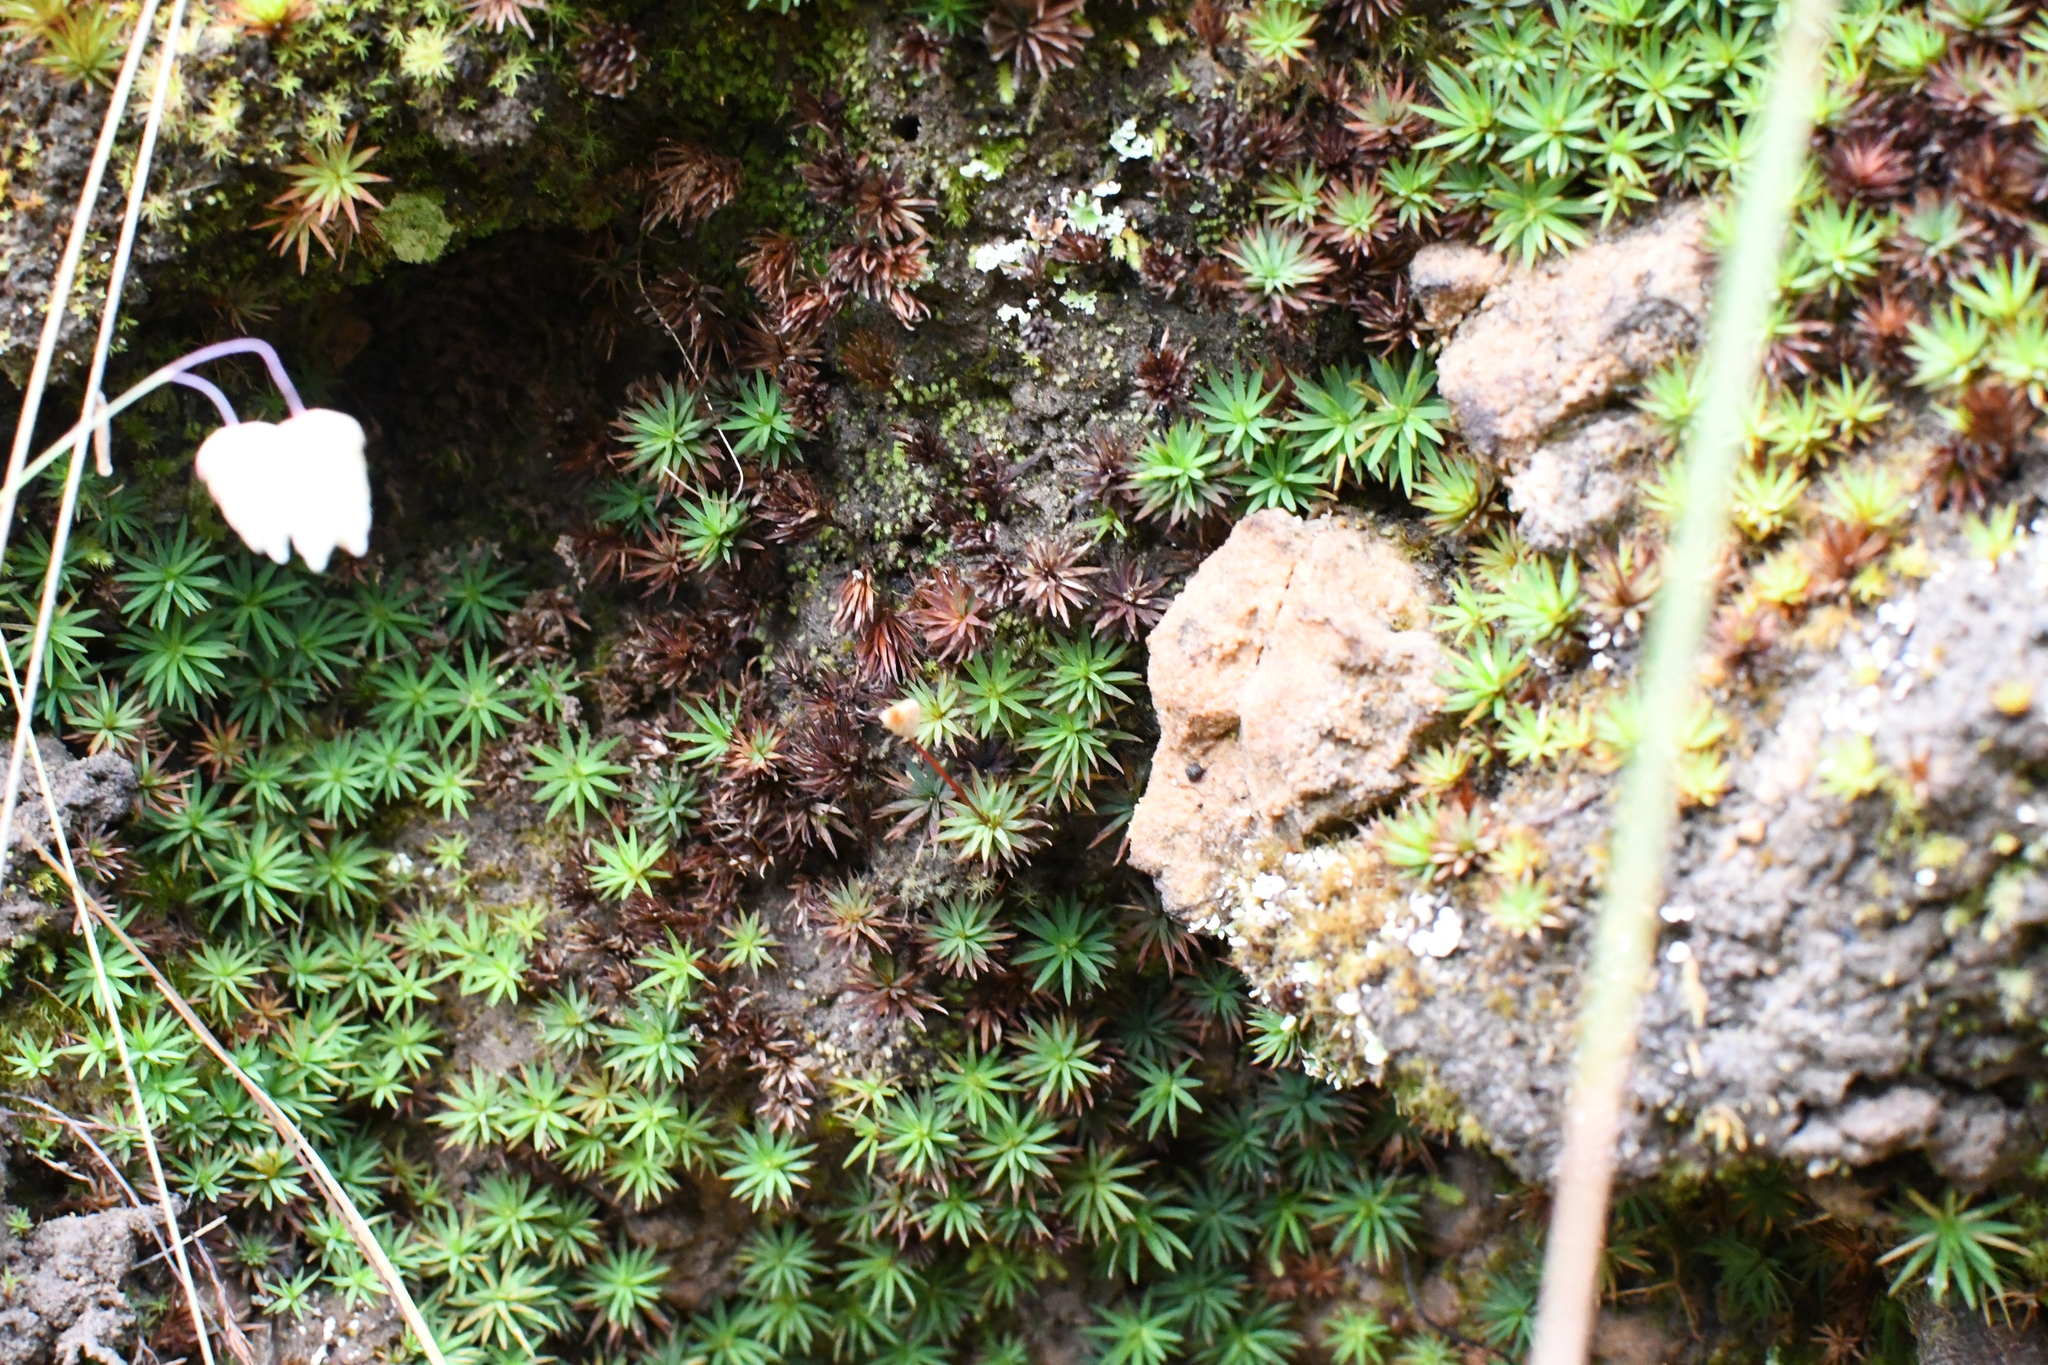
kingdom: Plantae
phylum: Bryophyta
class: Polytrichopsida
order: Polytrichales
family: Polytrichaceae
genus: Dawsonia
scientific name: Dawsonia longiseta
